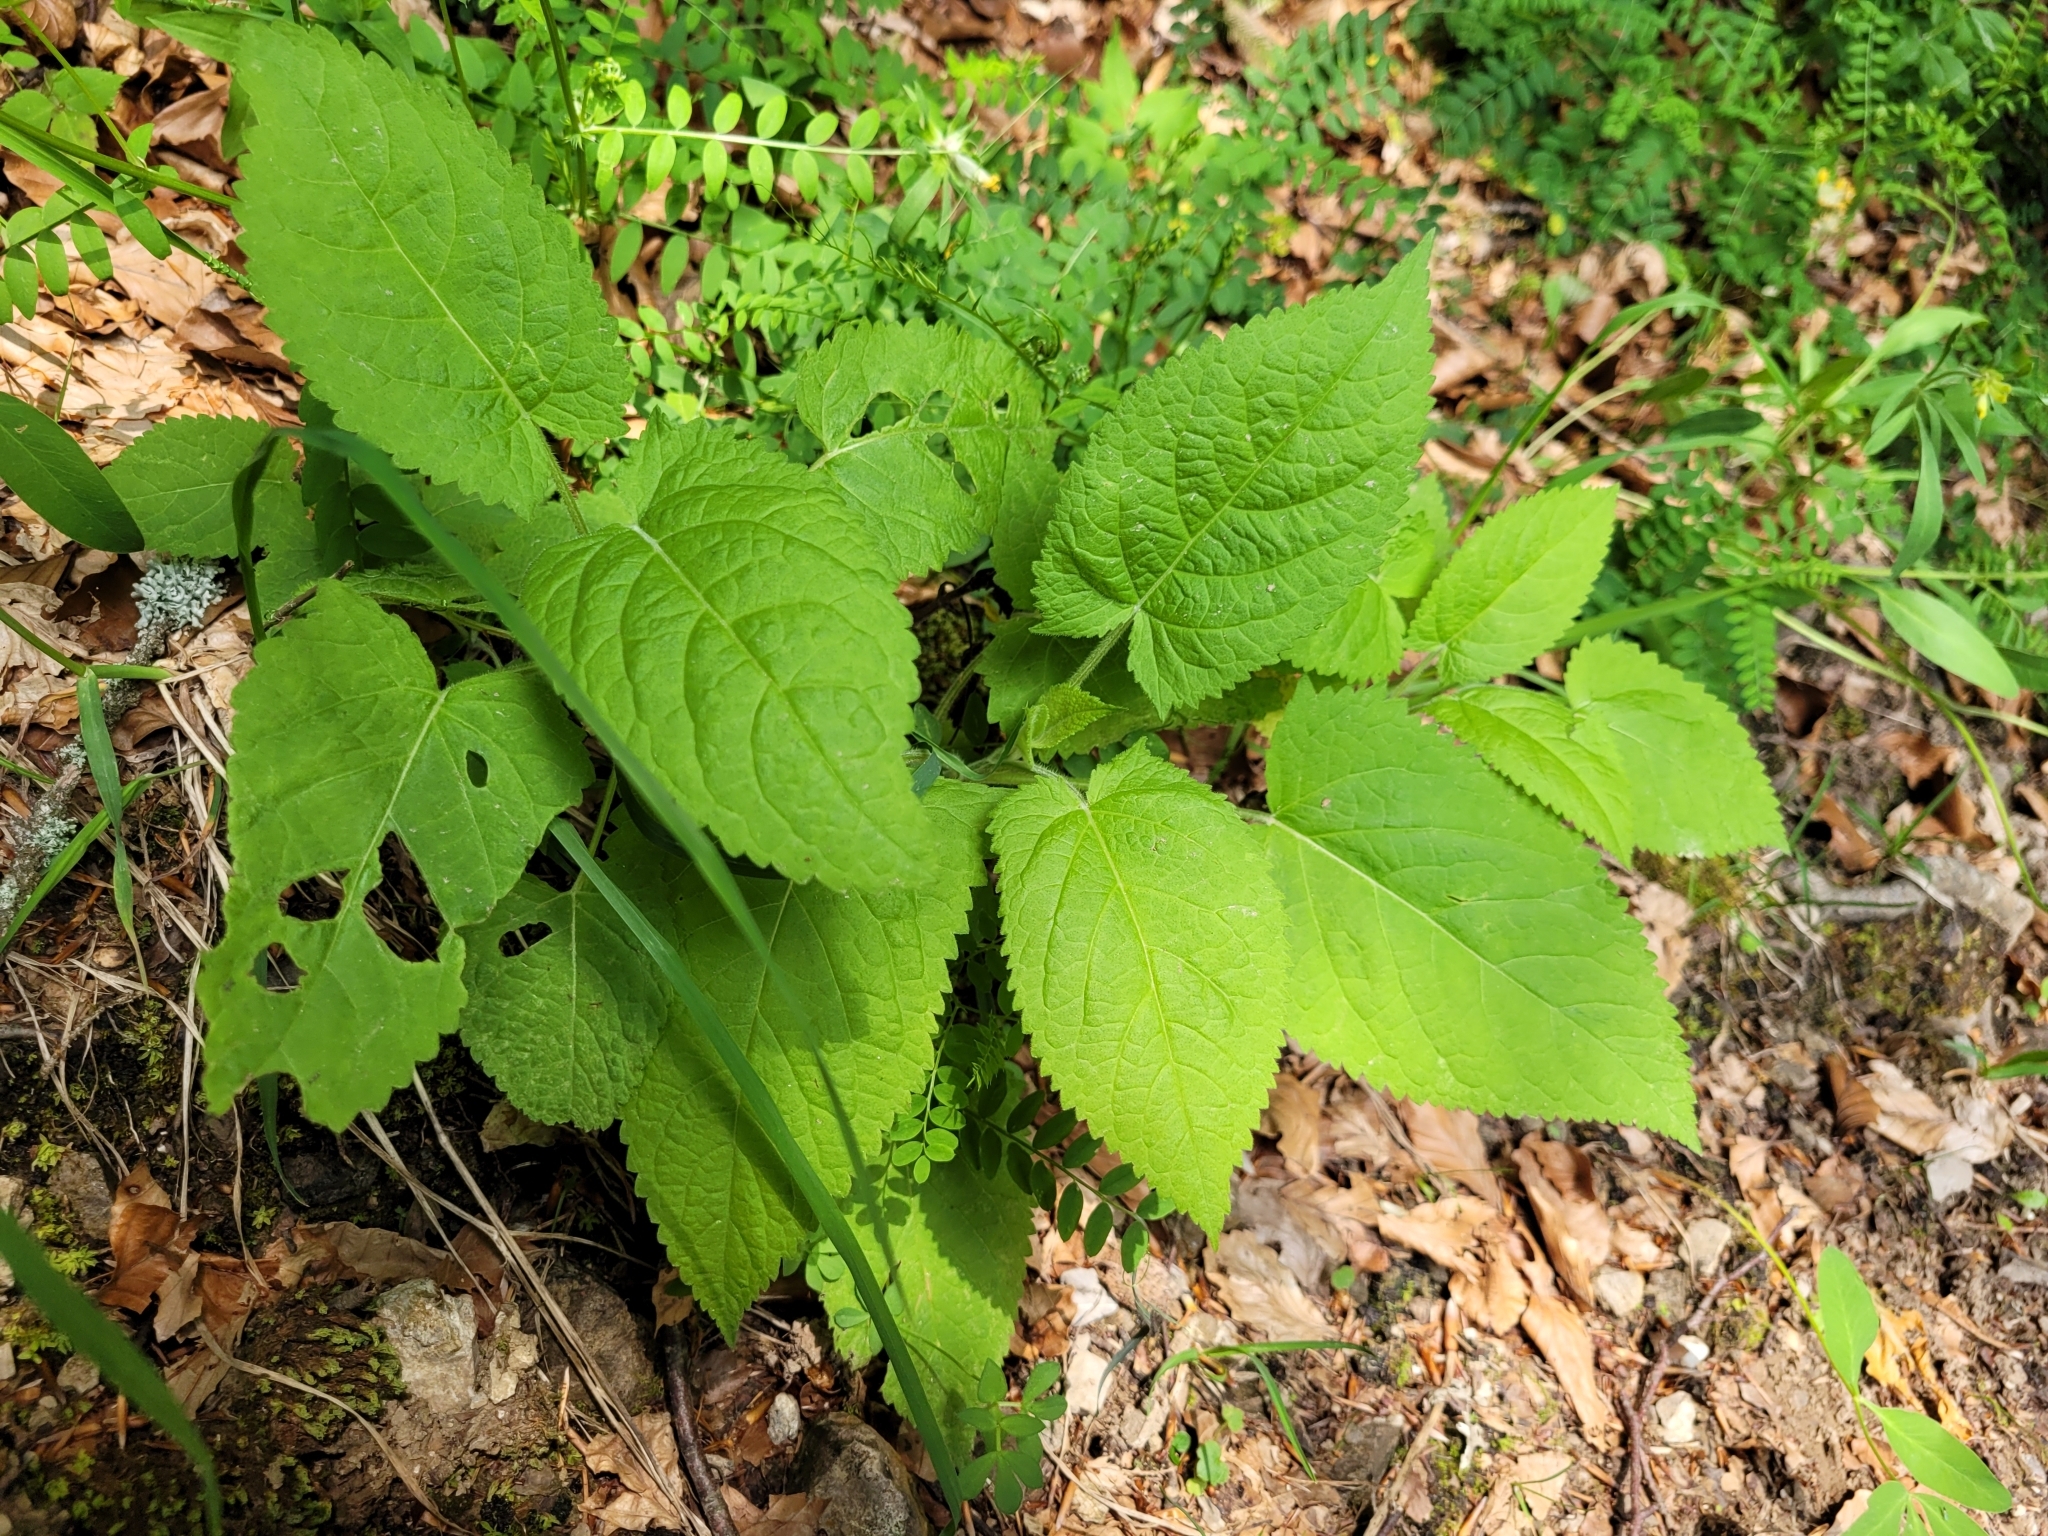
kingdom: Plantae
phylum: Tracheophyta
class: Magnoliopsida
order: Lamiales
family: Lamiaceae
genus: Salvia
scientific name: Salvia glutinosa
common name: Sticky clary
